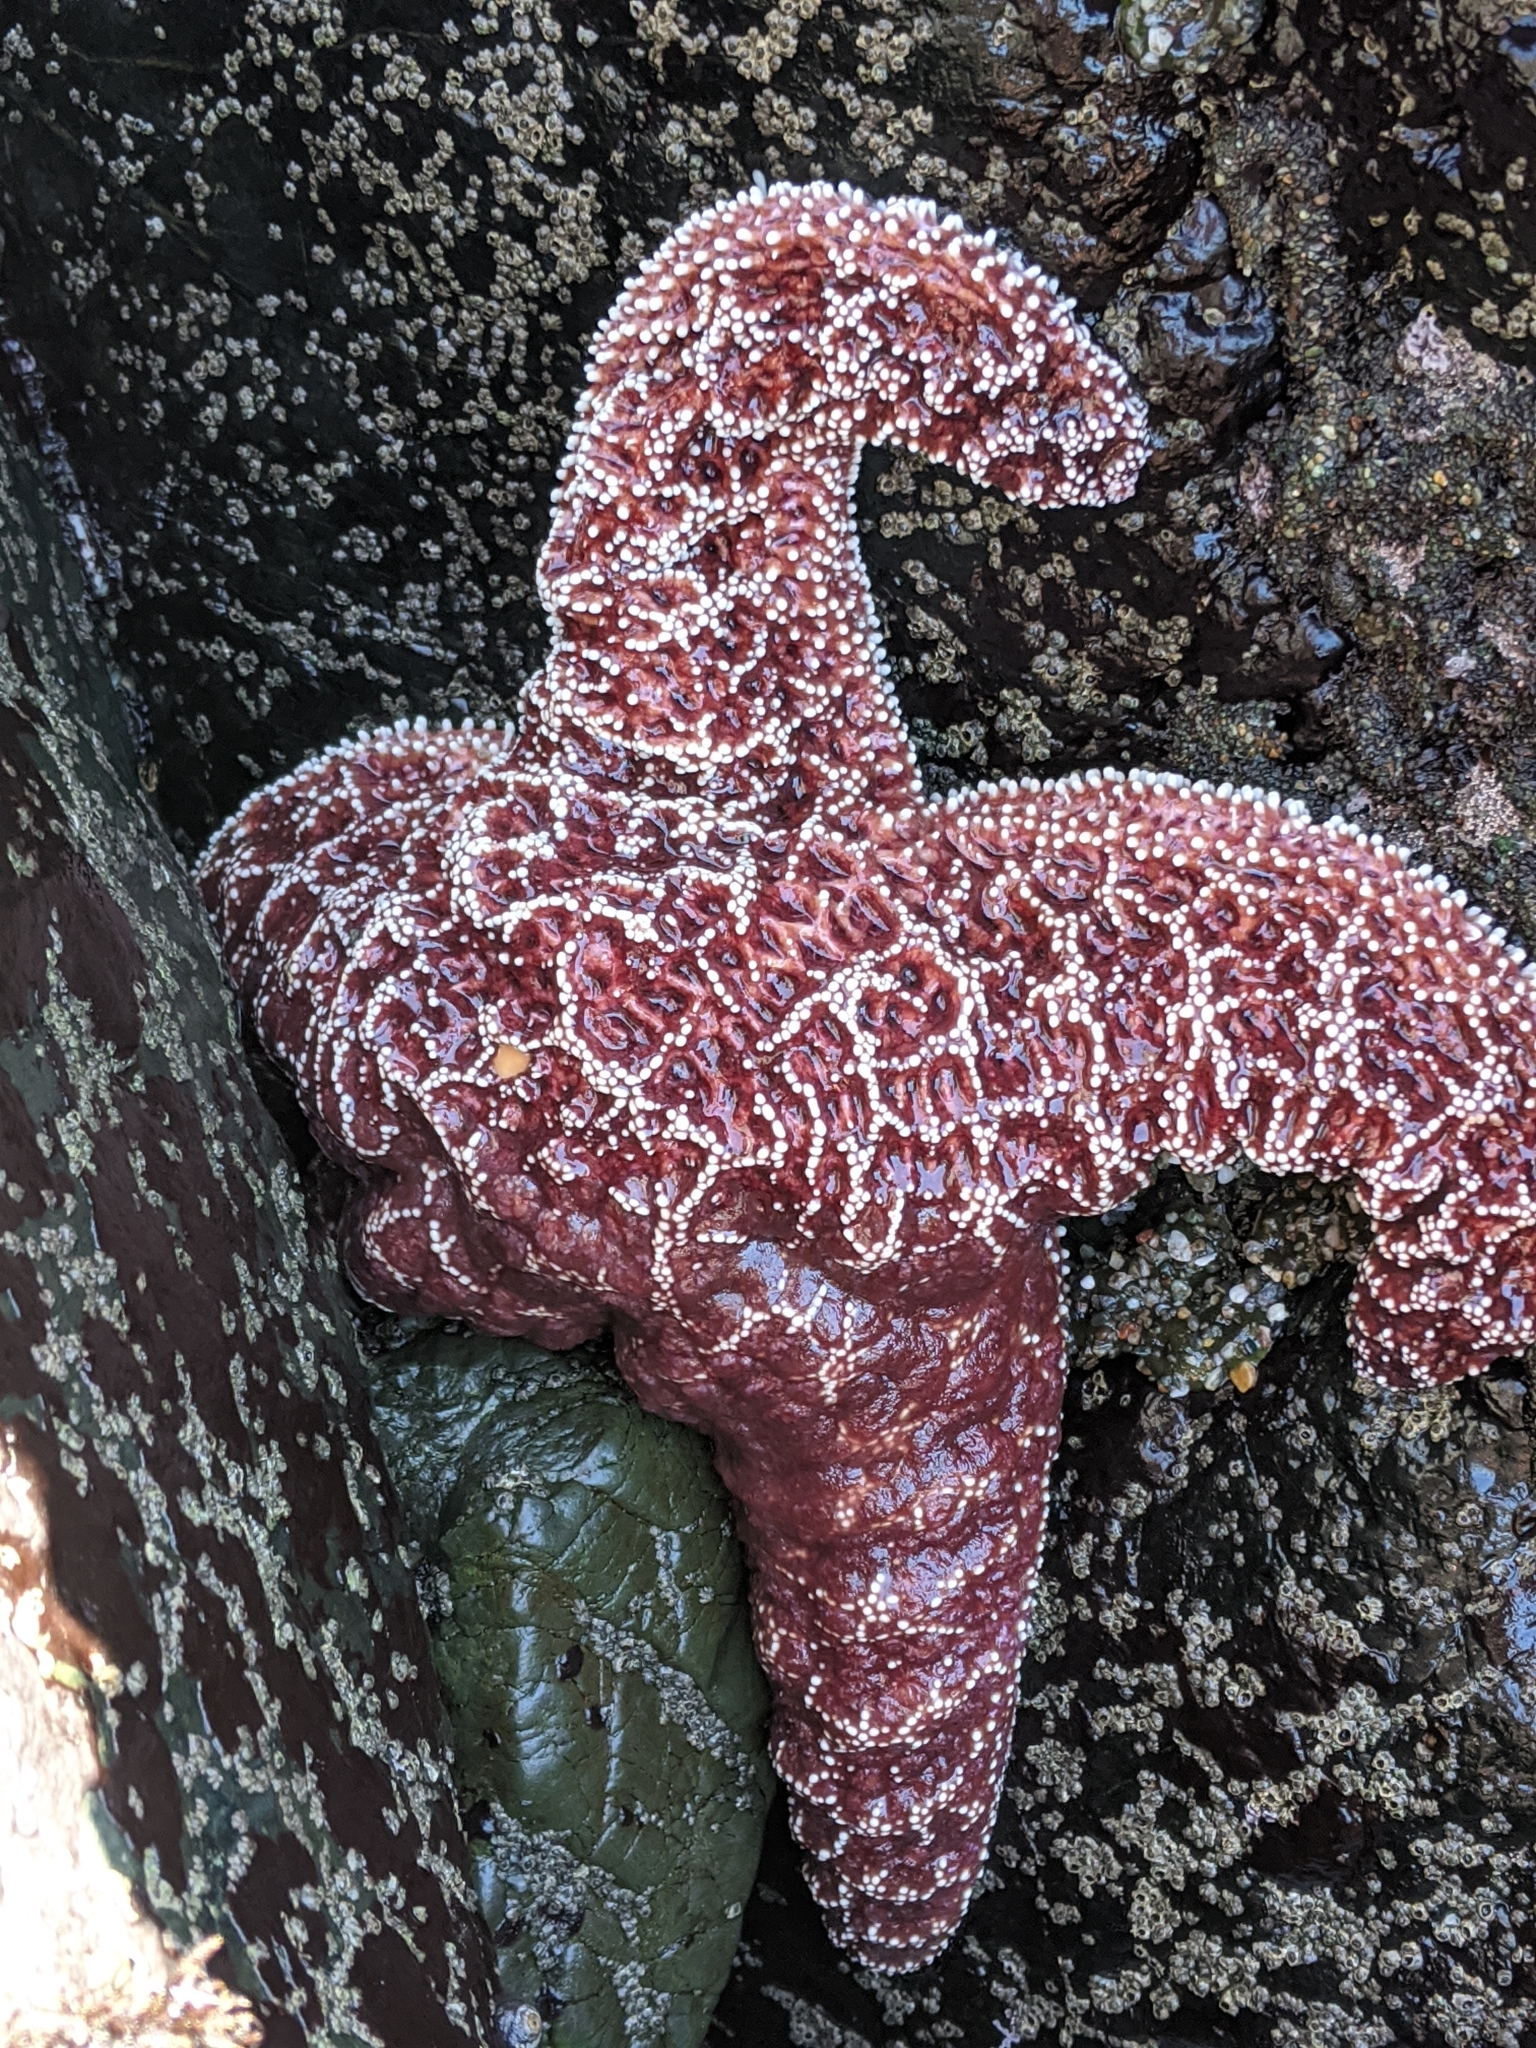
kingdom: Animalia
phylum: Echinodermata
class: Asteroidea
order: Forcipulatida
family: Asteriidae
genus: Pisaster
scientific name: Pisaster ochraceus
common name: Ochre stars
